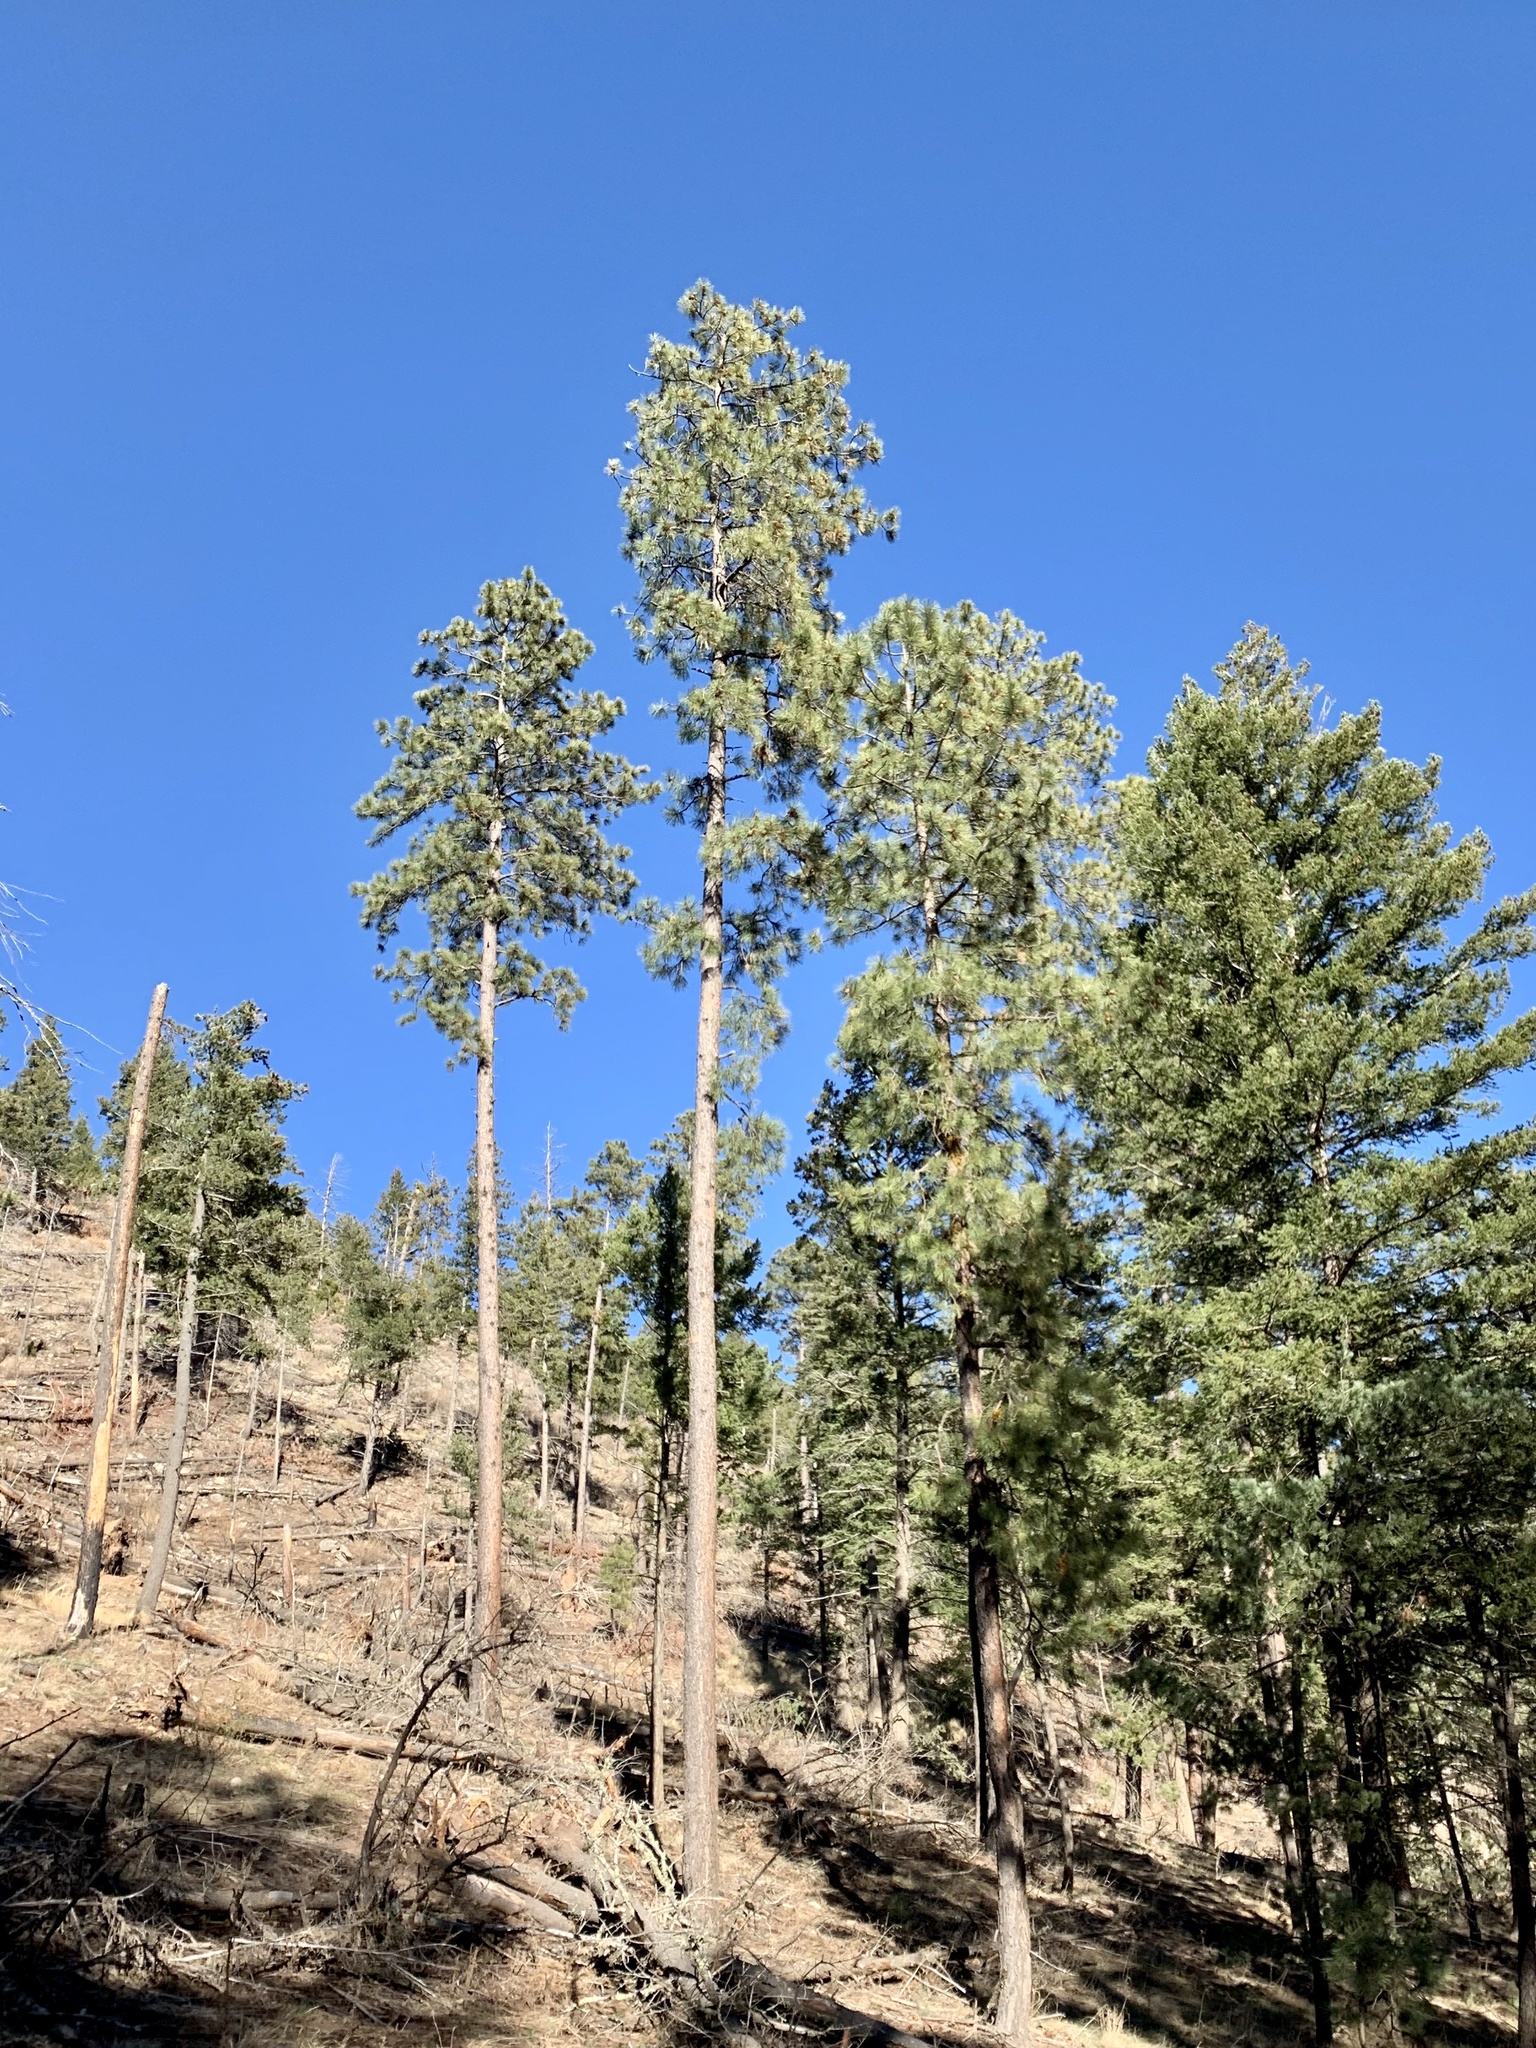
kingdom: Plantae
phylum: Tracheophyta
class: Pinopsida
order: Pinales
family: Pinaceae
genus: Pinus
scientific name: Pinus ponderosa
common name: Western yellow-pine
